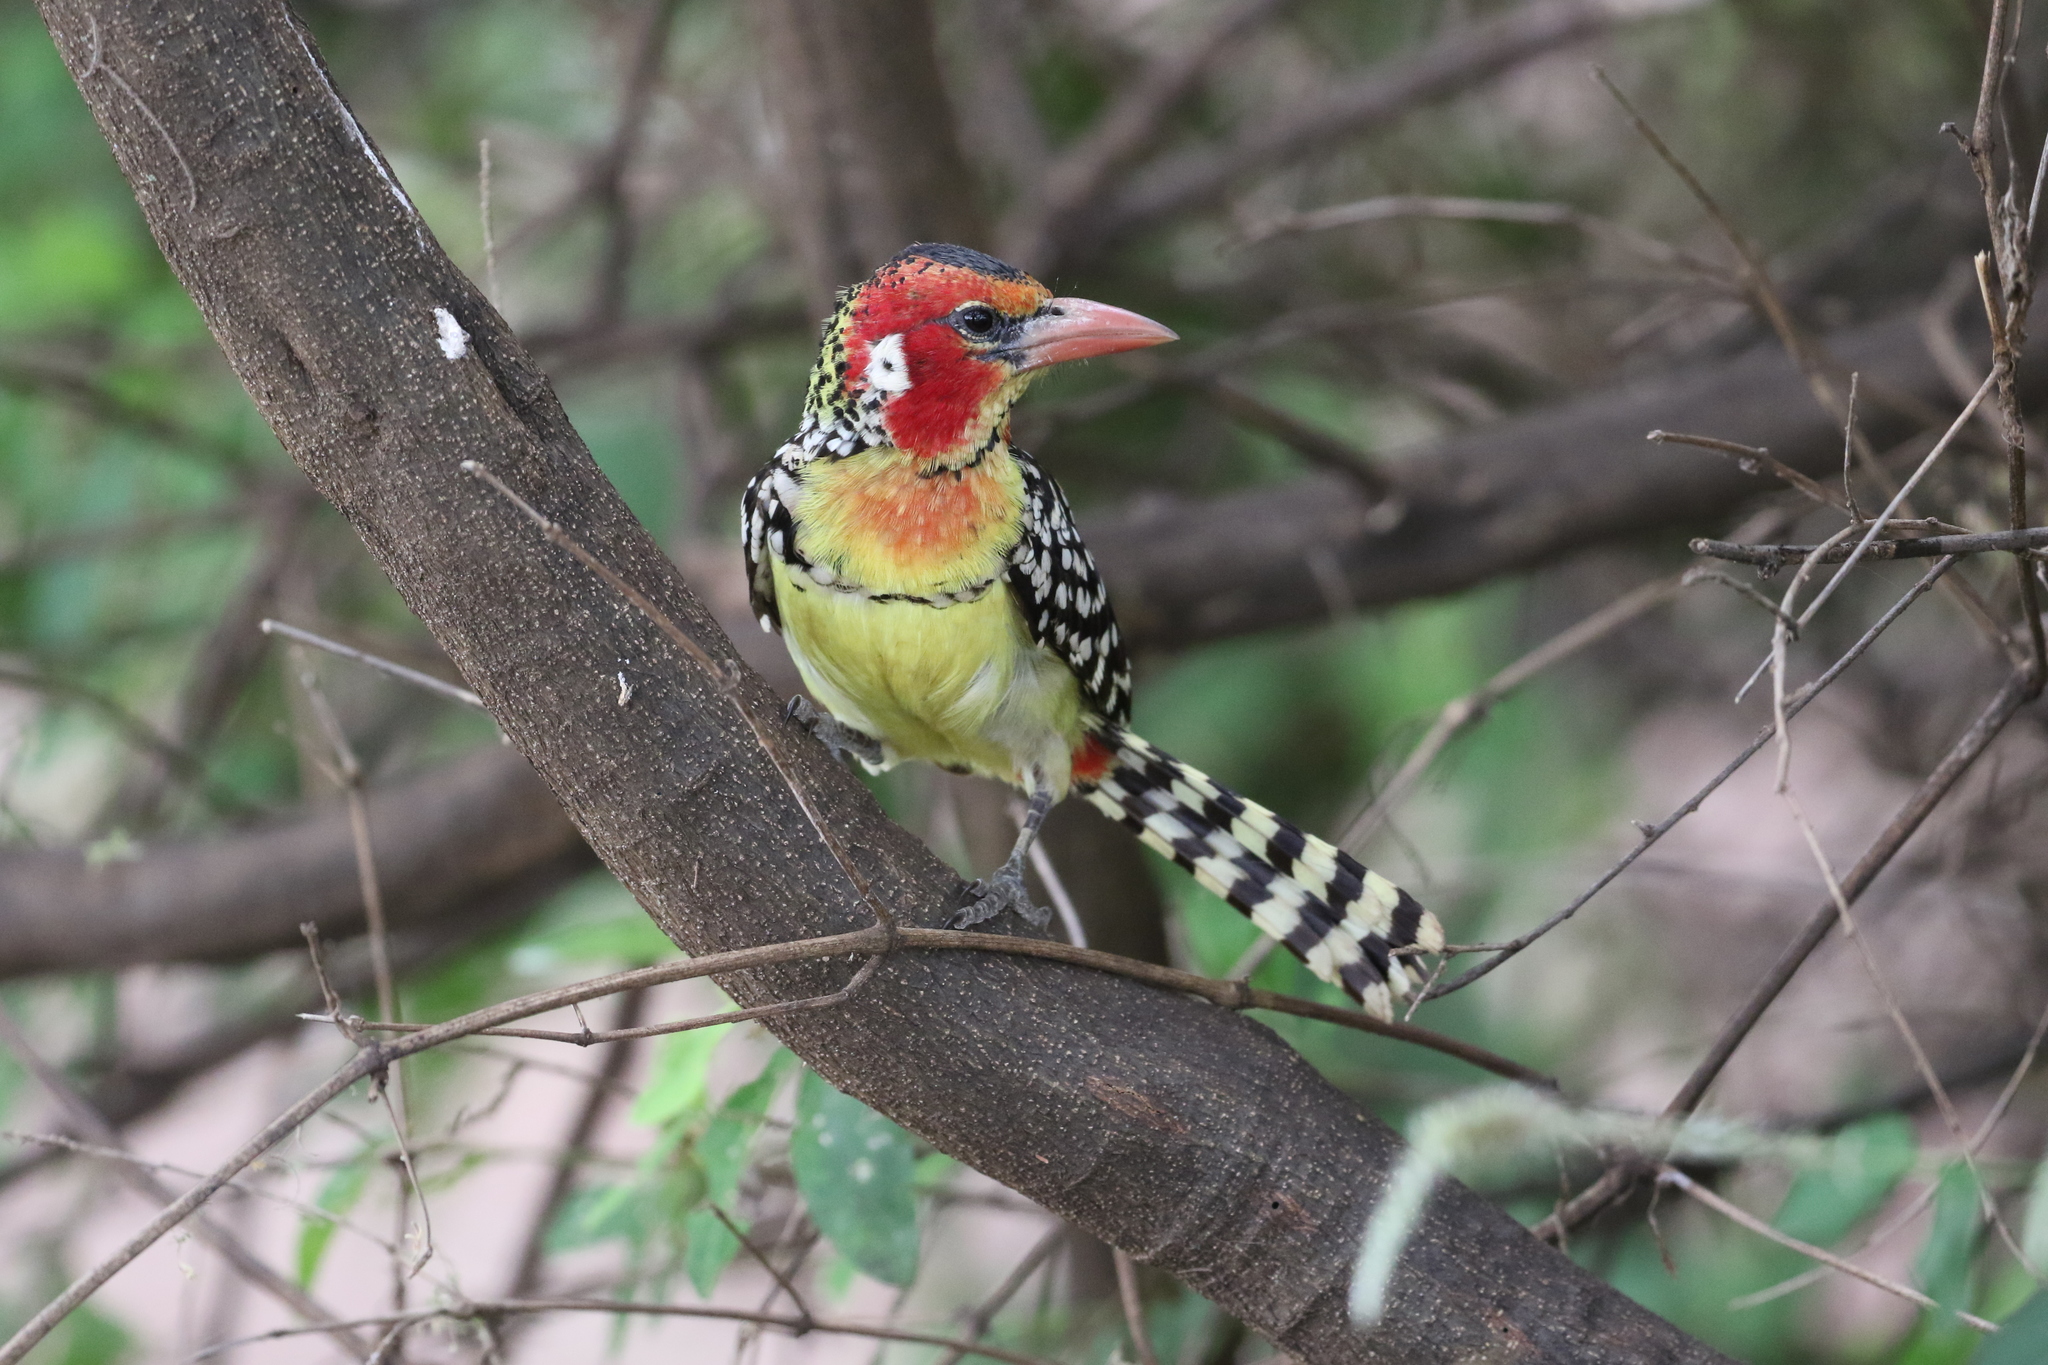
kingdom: Animalia
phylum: Chordata
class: Aves
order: Piciformes
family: Lybiidae
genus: Trachyphonus
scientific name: Trachyphonus erythrocephalus
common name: Red-and-yellow barbet
